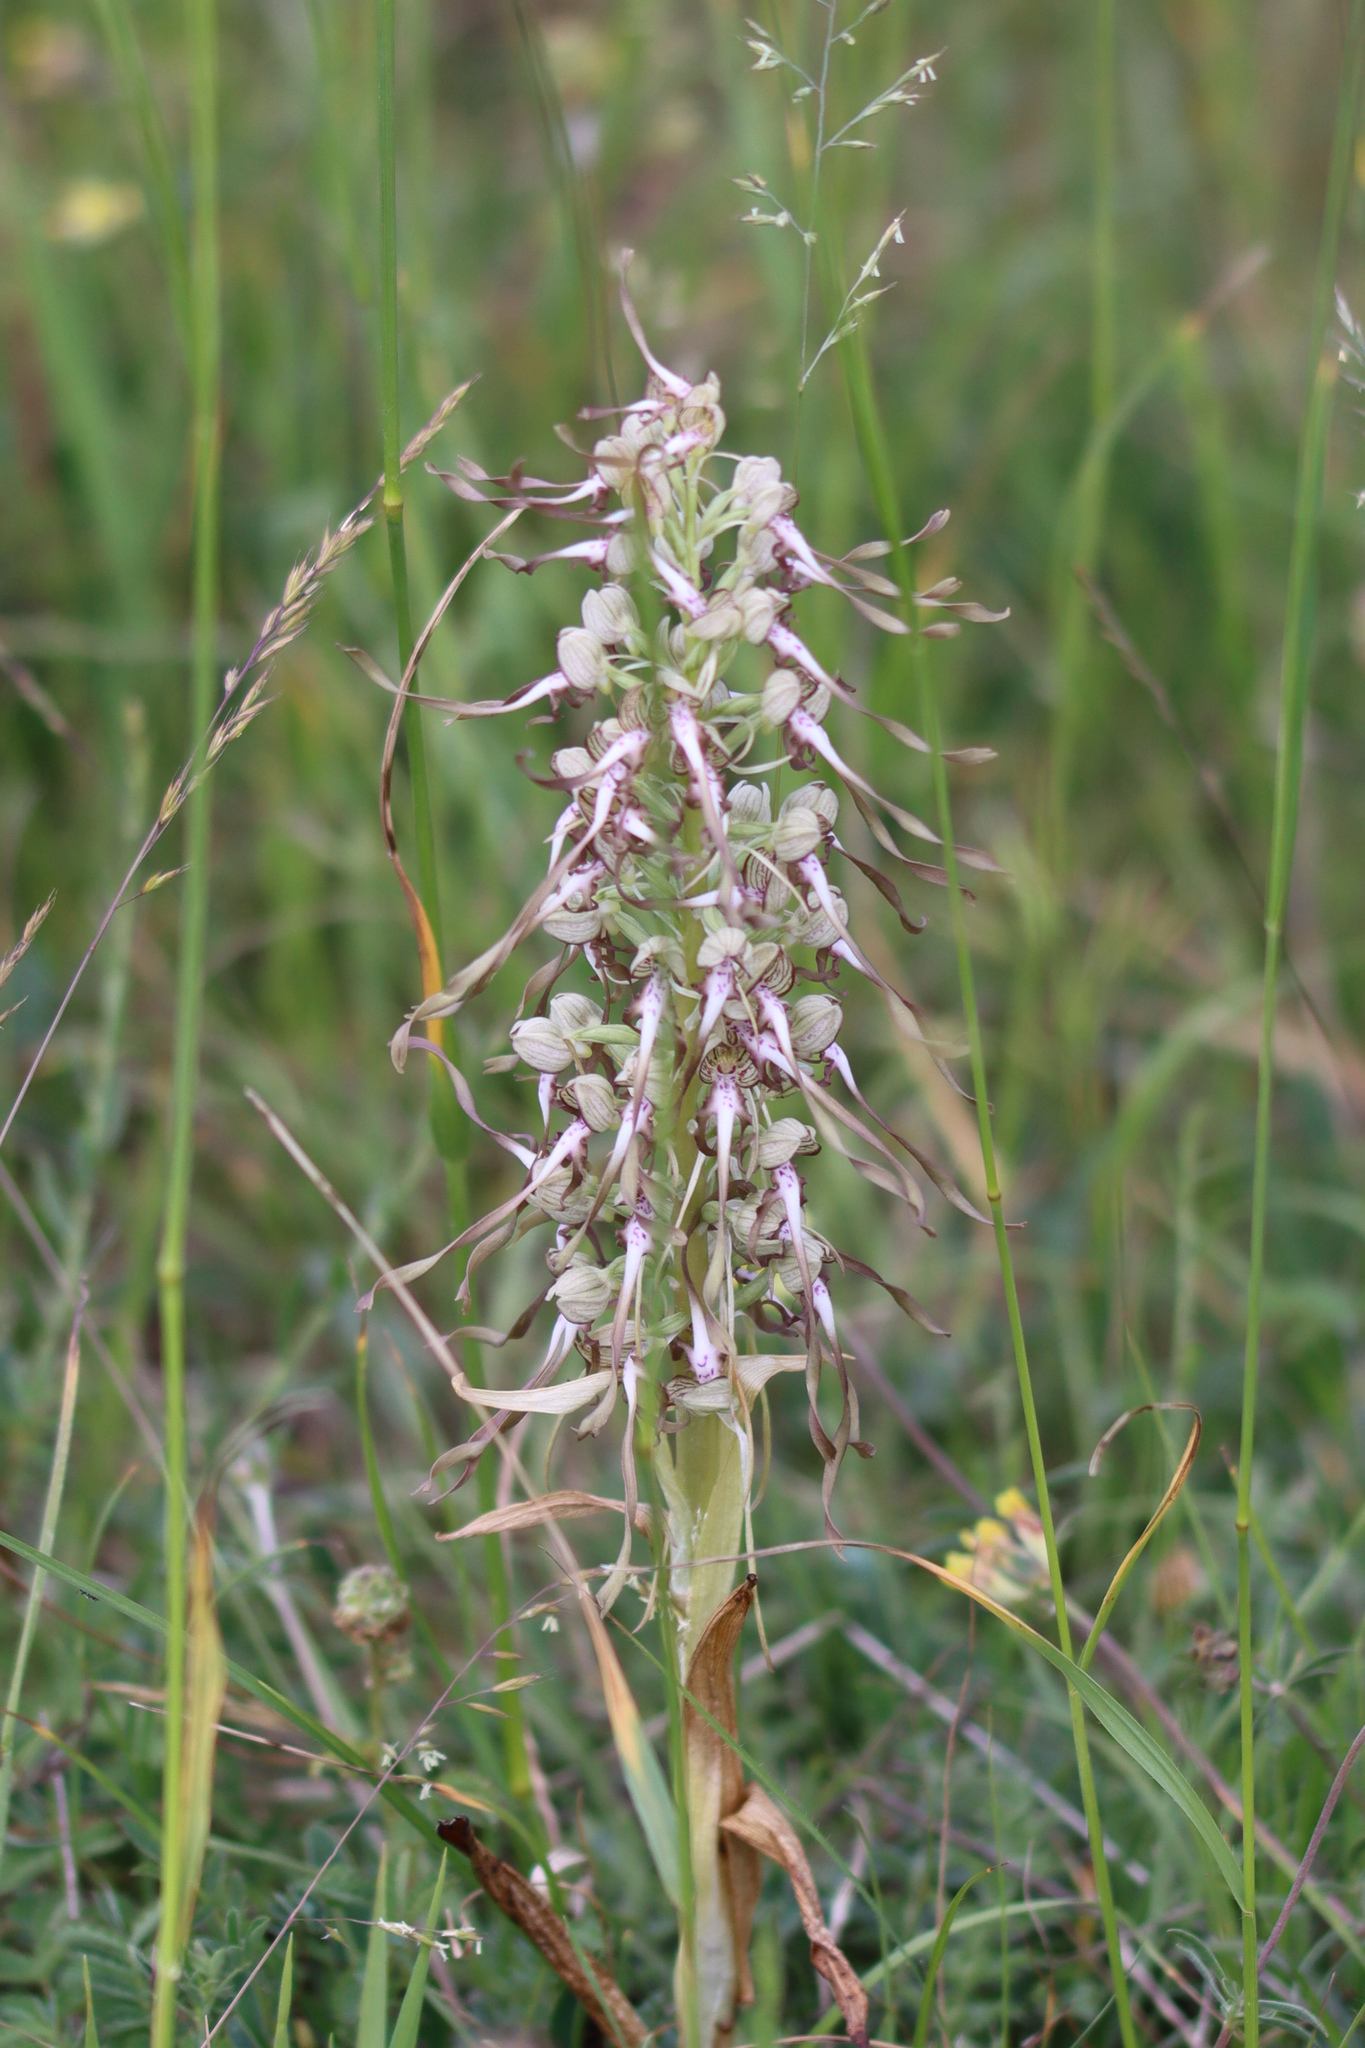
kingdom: Plantae
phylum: Tracheophyta
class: Liliopsida
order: Asparagales
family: Orchidaceae
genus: Himantoglossum
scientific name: Himantoglossum hircinum
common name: Lizard orchid
